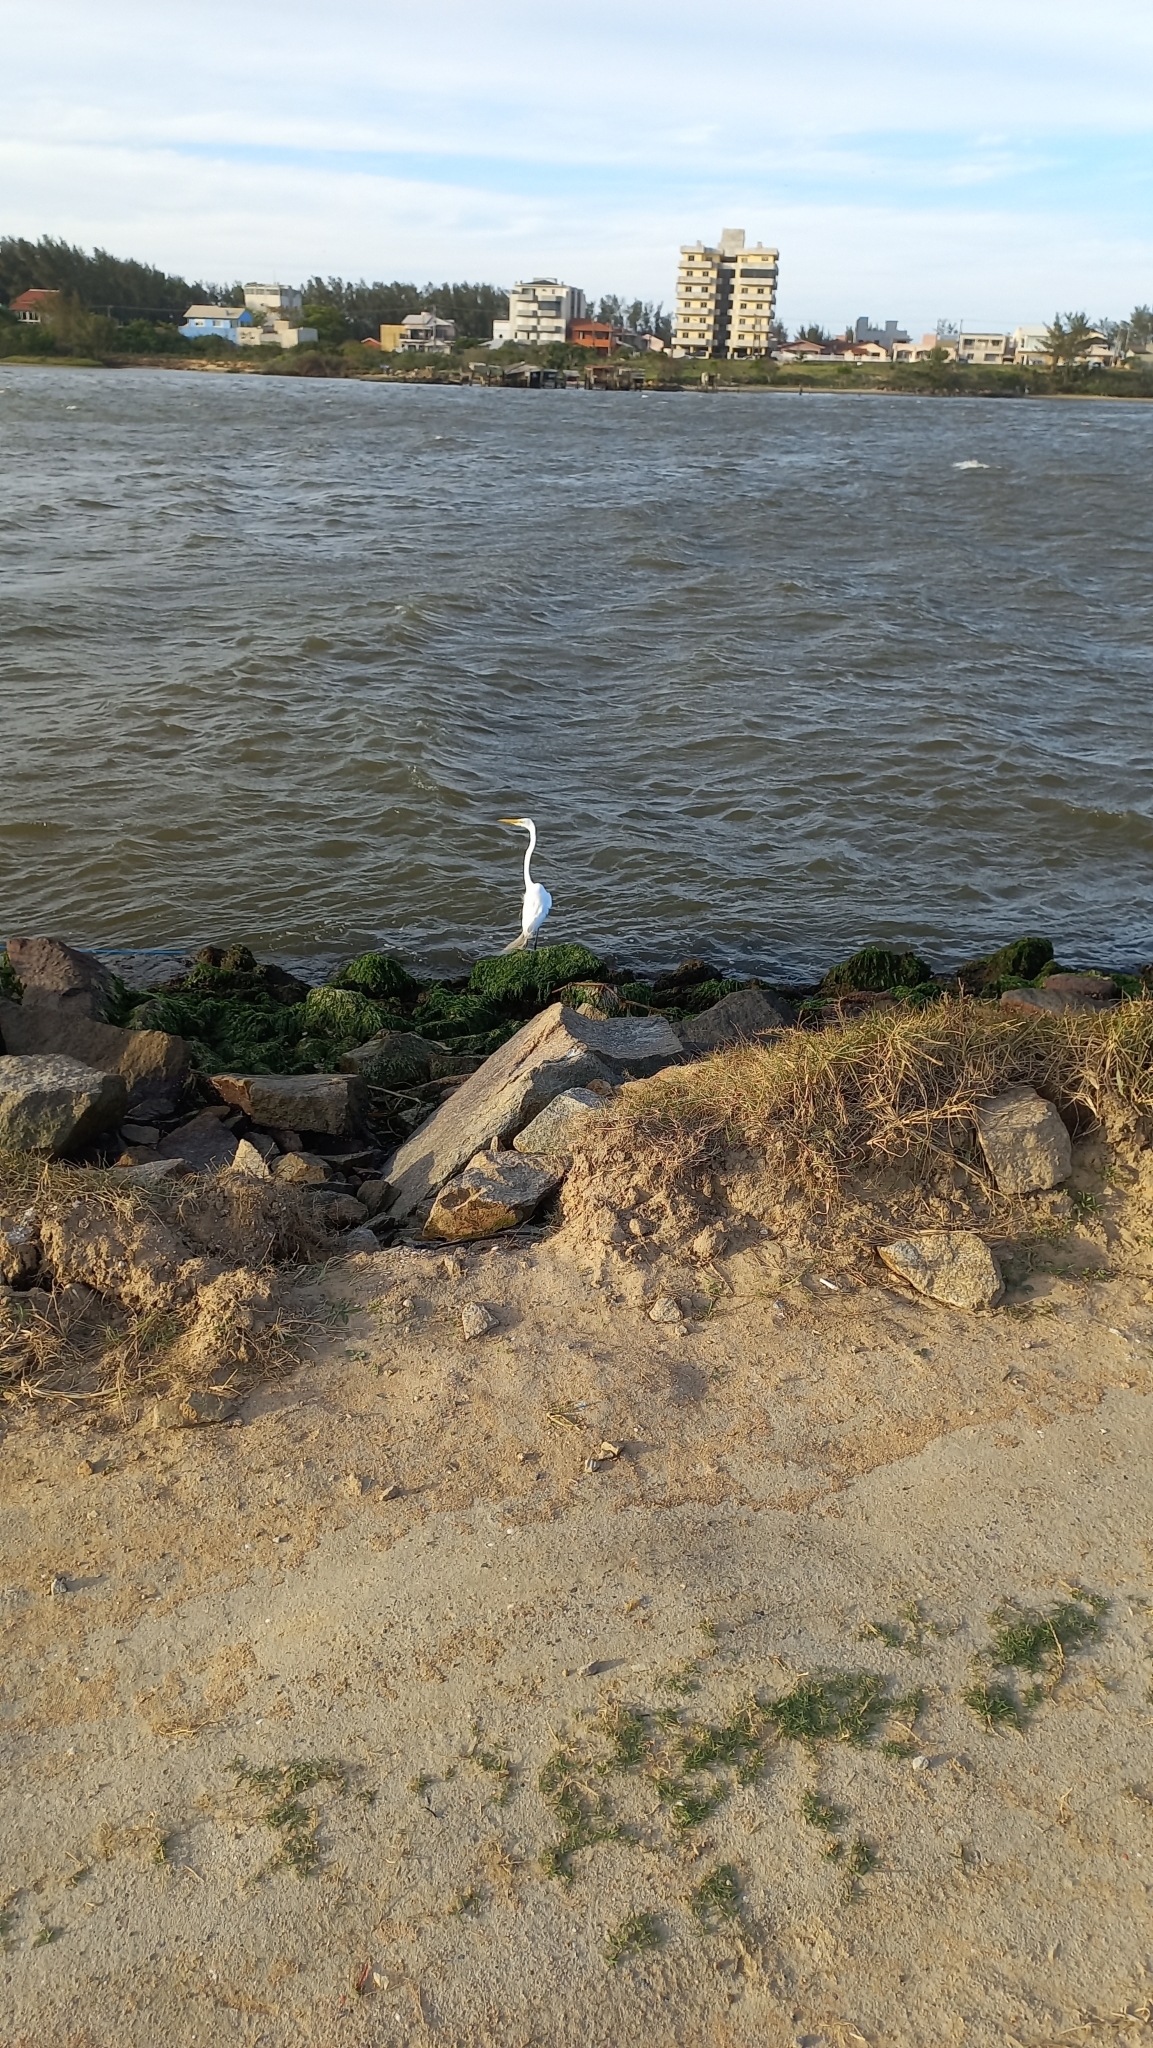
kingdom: Animalia
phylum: Chordata
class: Aves
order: Pelecaniformes
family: Ardeidae
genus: Ardea
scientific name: Ardea alba
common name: Great egret
